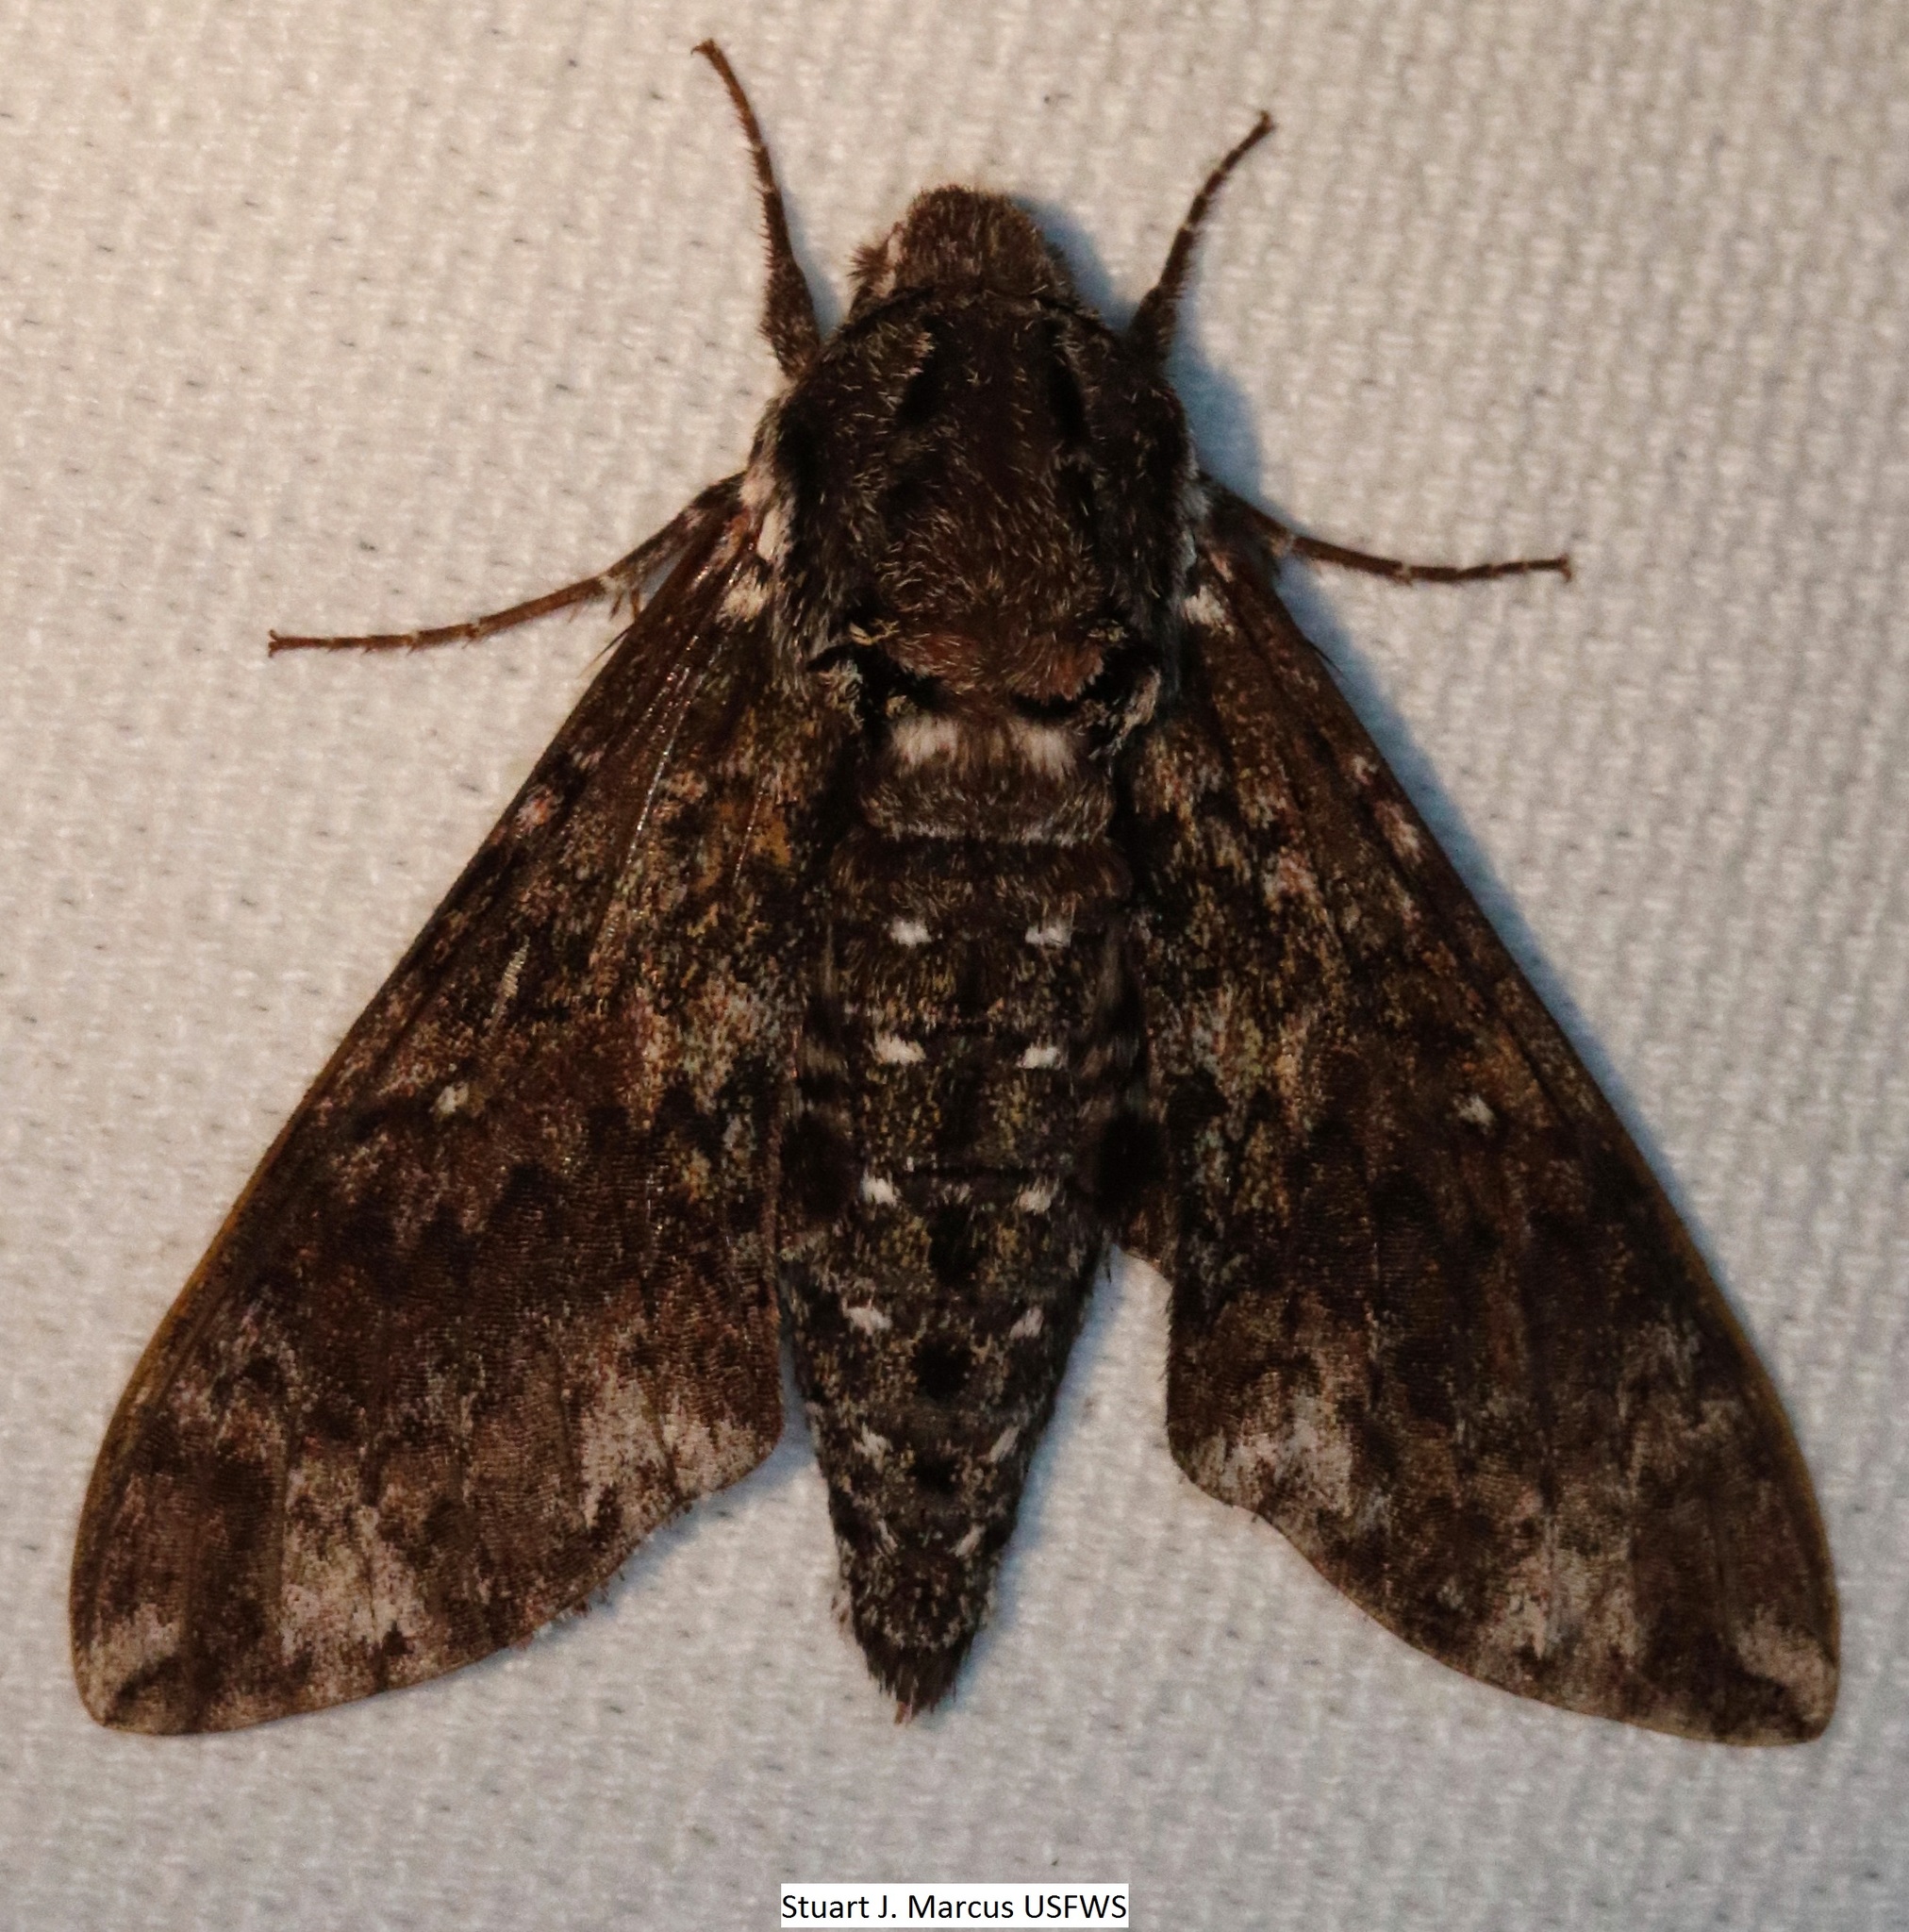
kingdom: Animalia
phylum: Arthropoda
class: Insecta
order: Lepidoptera
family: Sphingidae
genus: Dolba
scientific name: Dolba hyloeus
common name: Pawpaw sphinx
